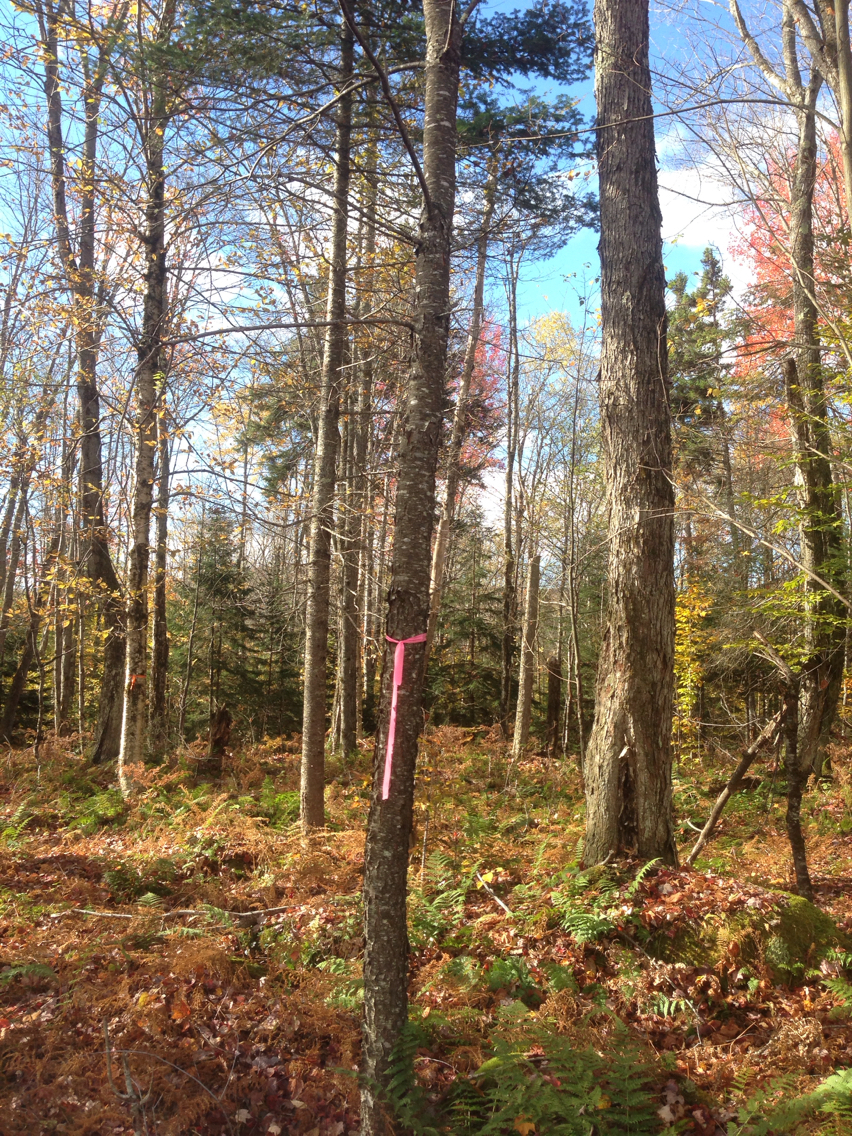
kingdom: Plantae
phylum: Tracheophyta
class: Magnoliopsida
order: Rosales
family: Rosaceae
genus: Prunus
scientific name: Prunus serotina
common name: Black cherry
